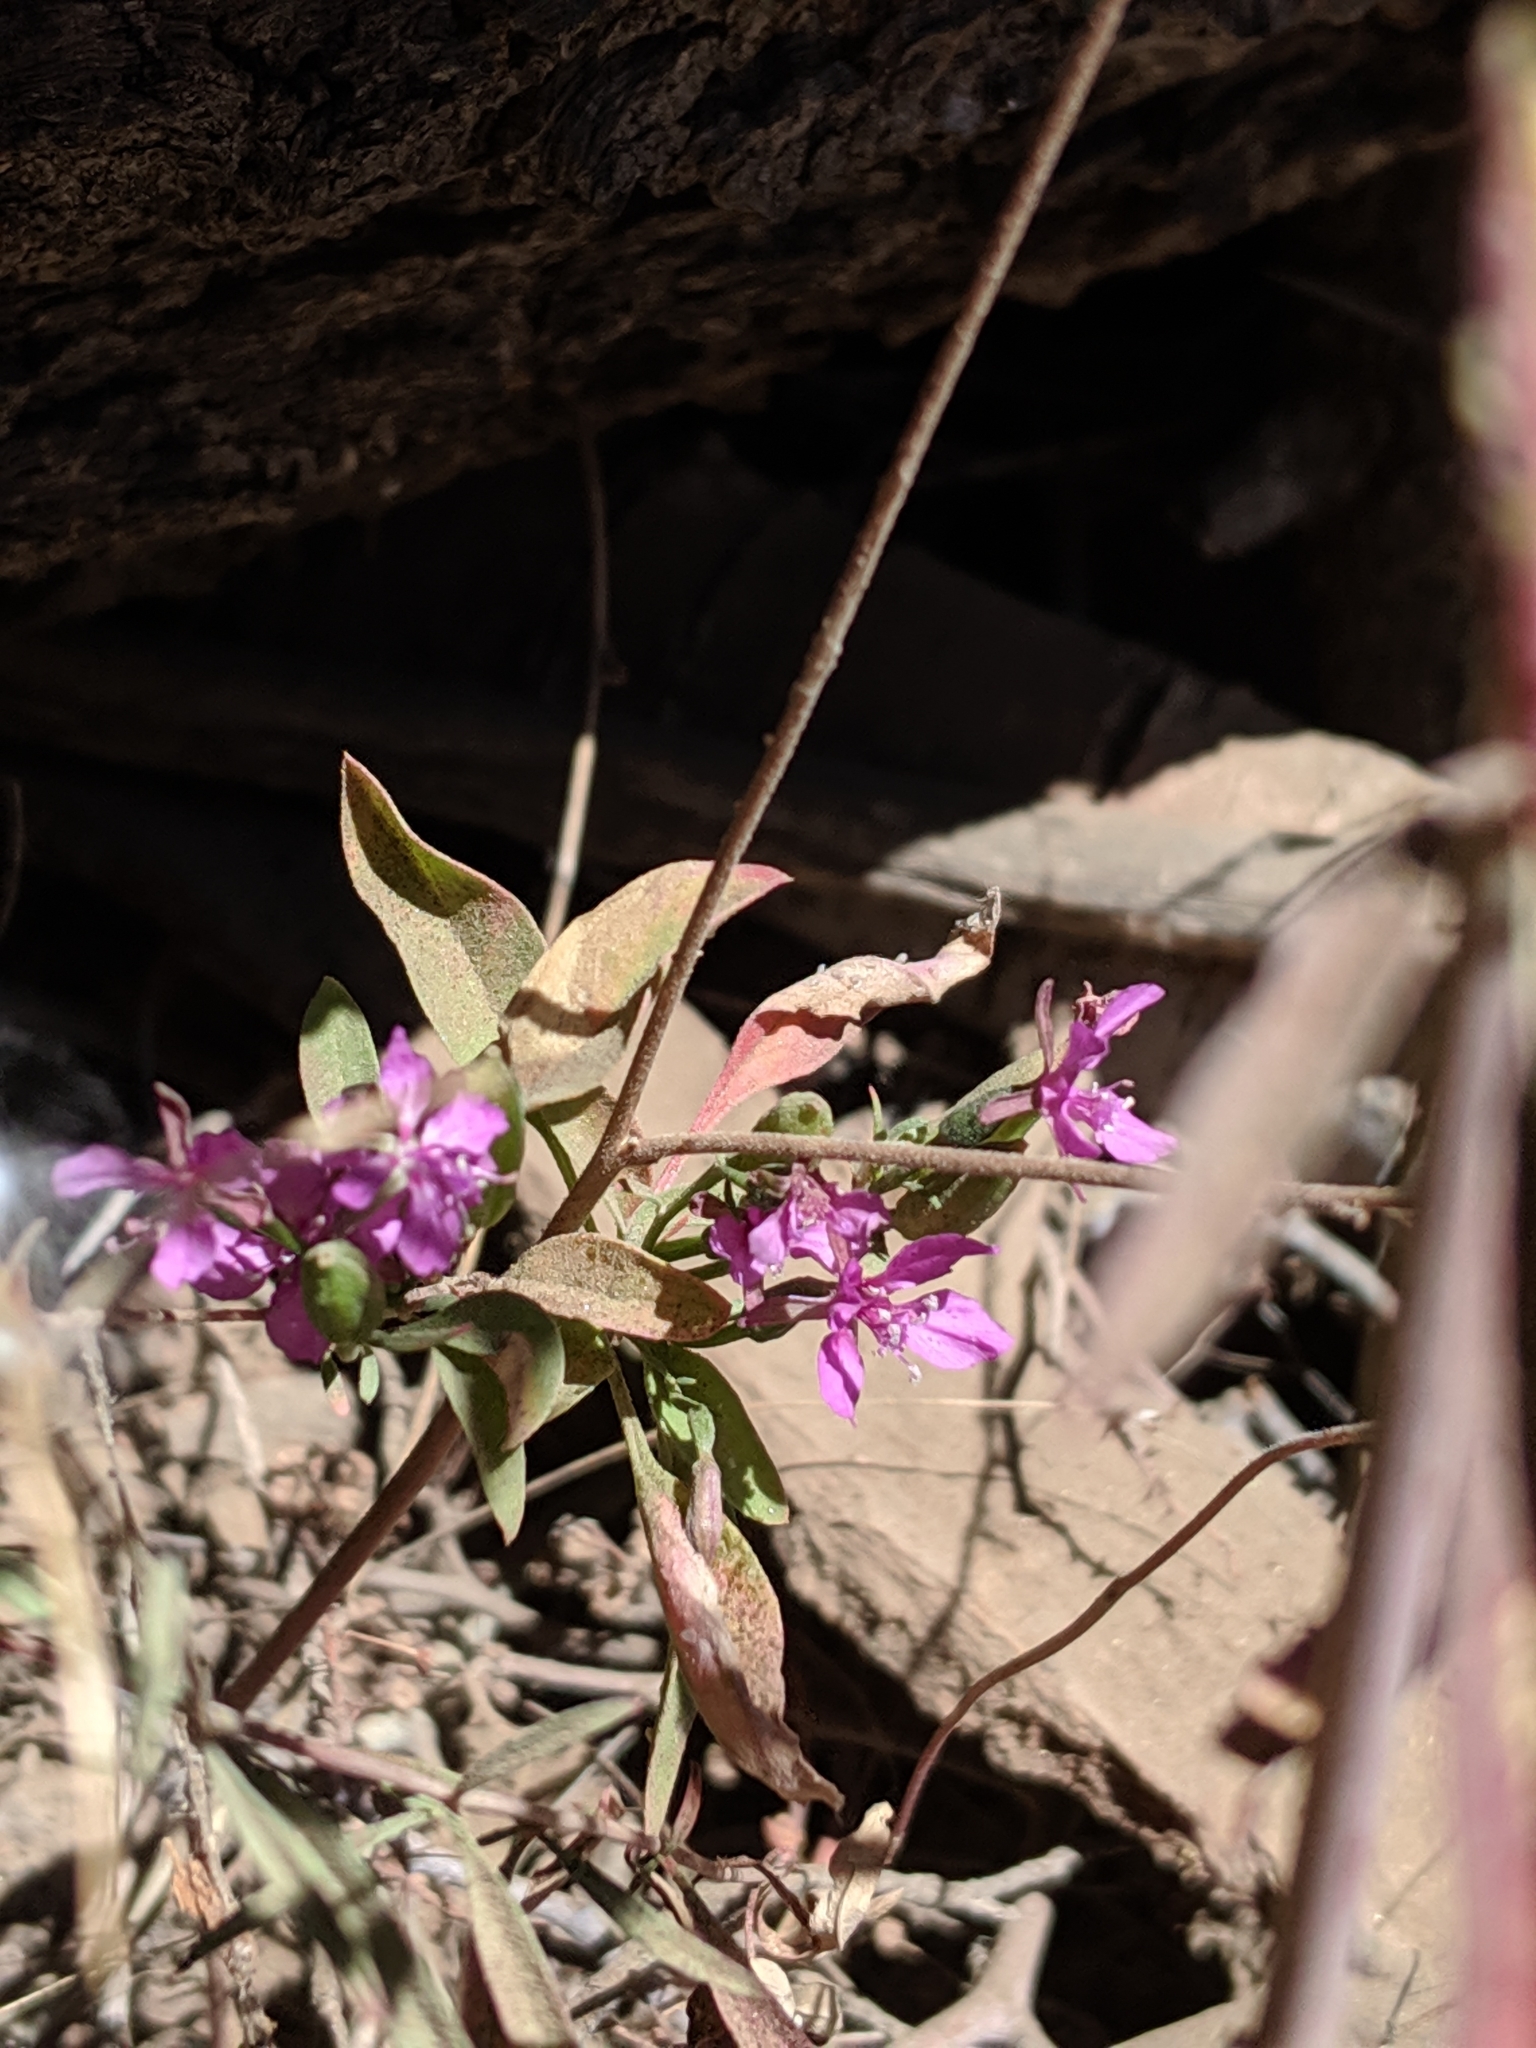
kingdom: Plantae
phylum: Tracheophyta
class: Magnoliopsida
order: Myrtales
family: Onagraceae
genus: Clarkia
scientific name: Clarkia rhomboidea
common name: Broadleaf clarkia
